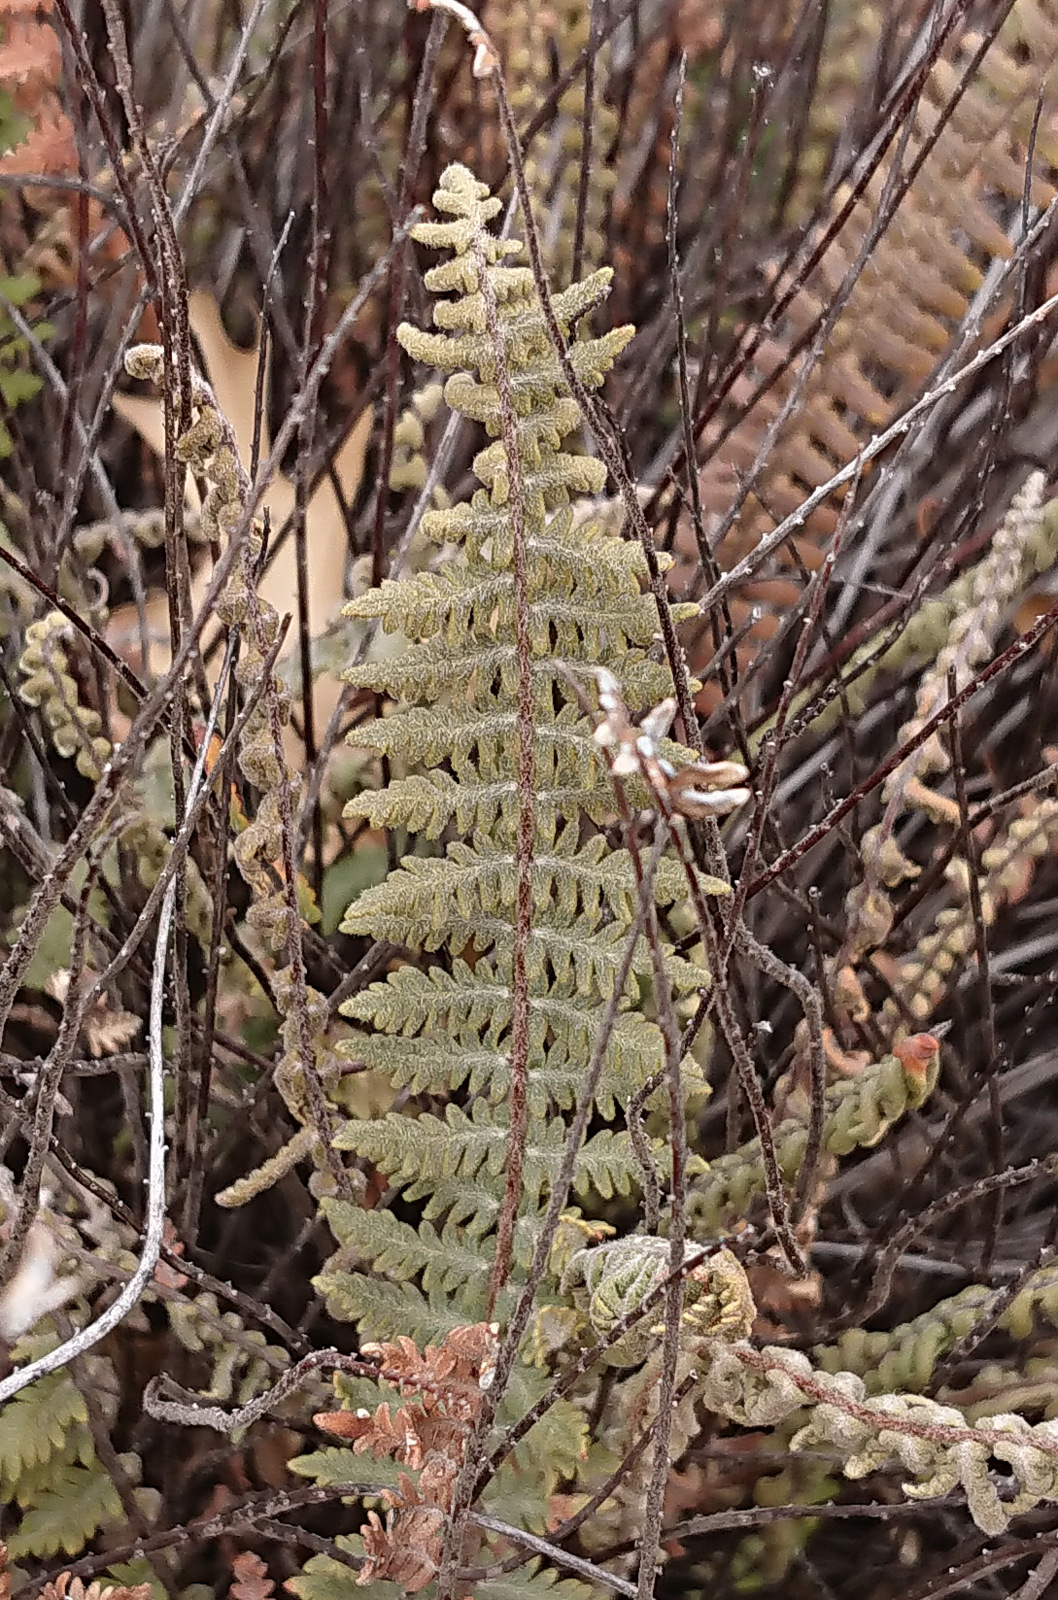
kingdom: Plantae
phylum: Tracheophyta
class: Polypodiopsida
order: Polypodiales
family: Pteridaceae
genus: Myriopteris
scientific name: Myriopteris aurea
